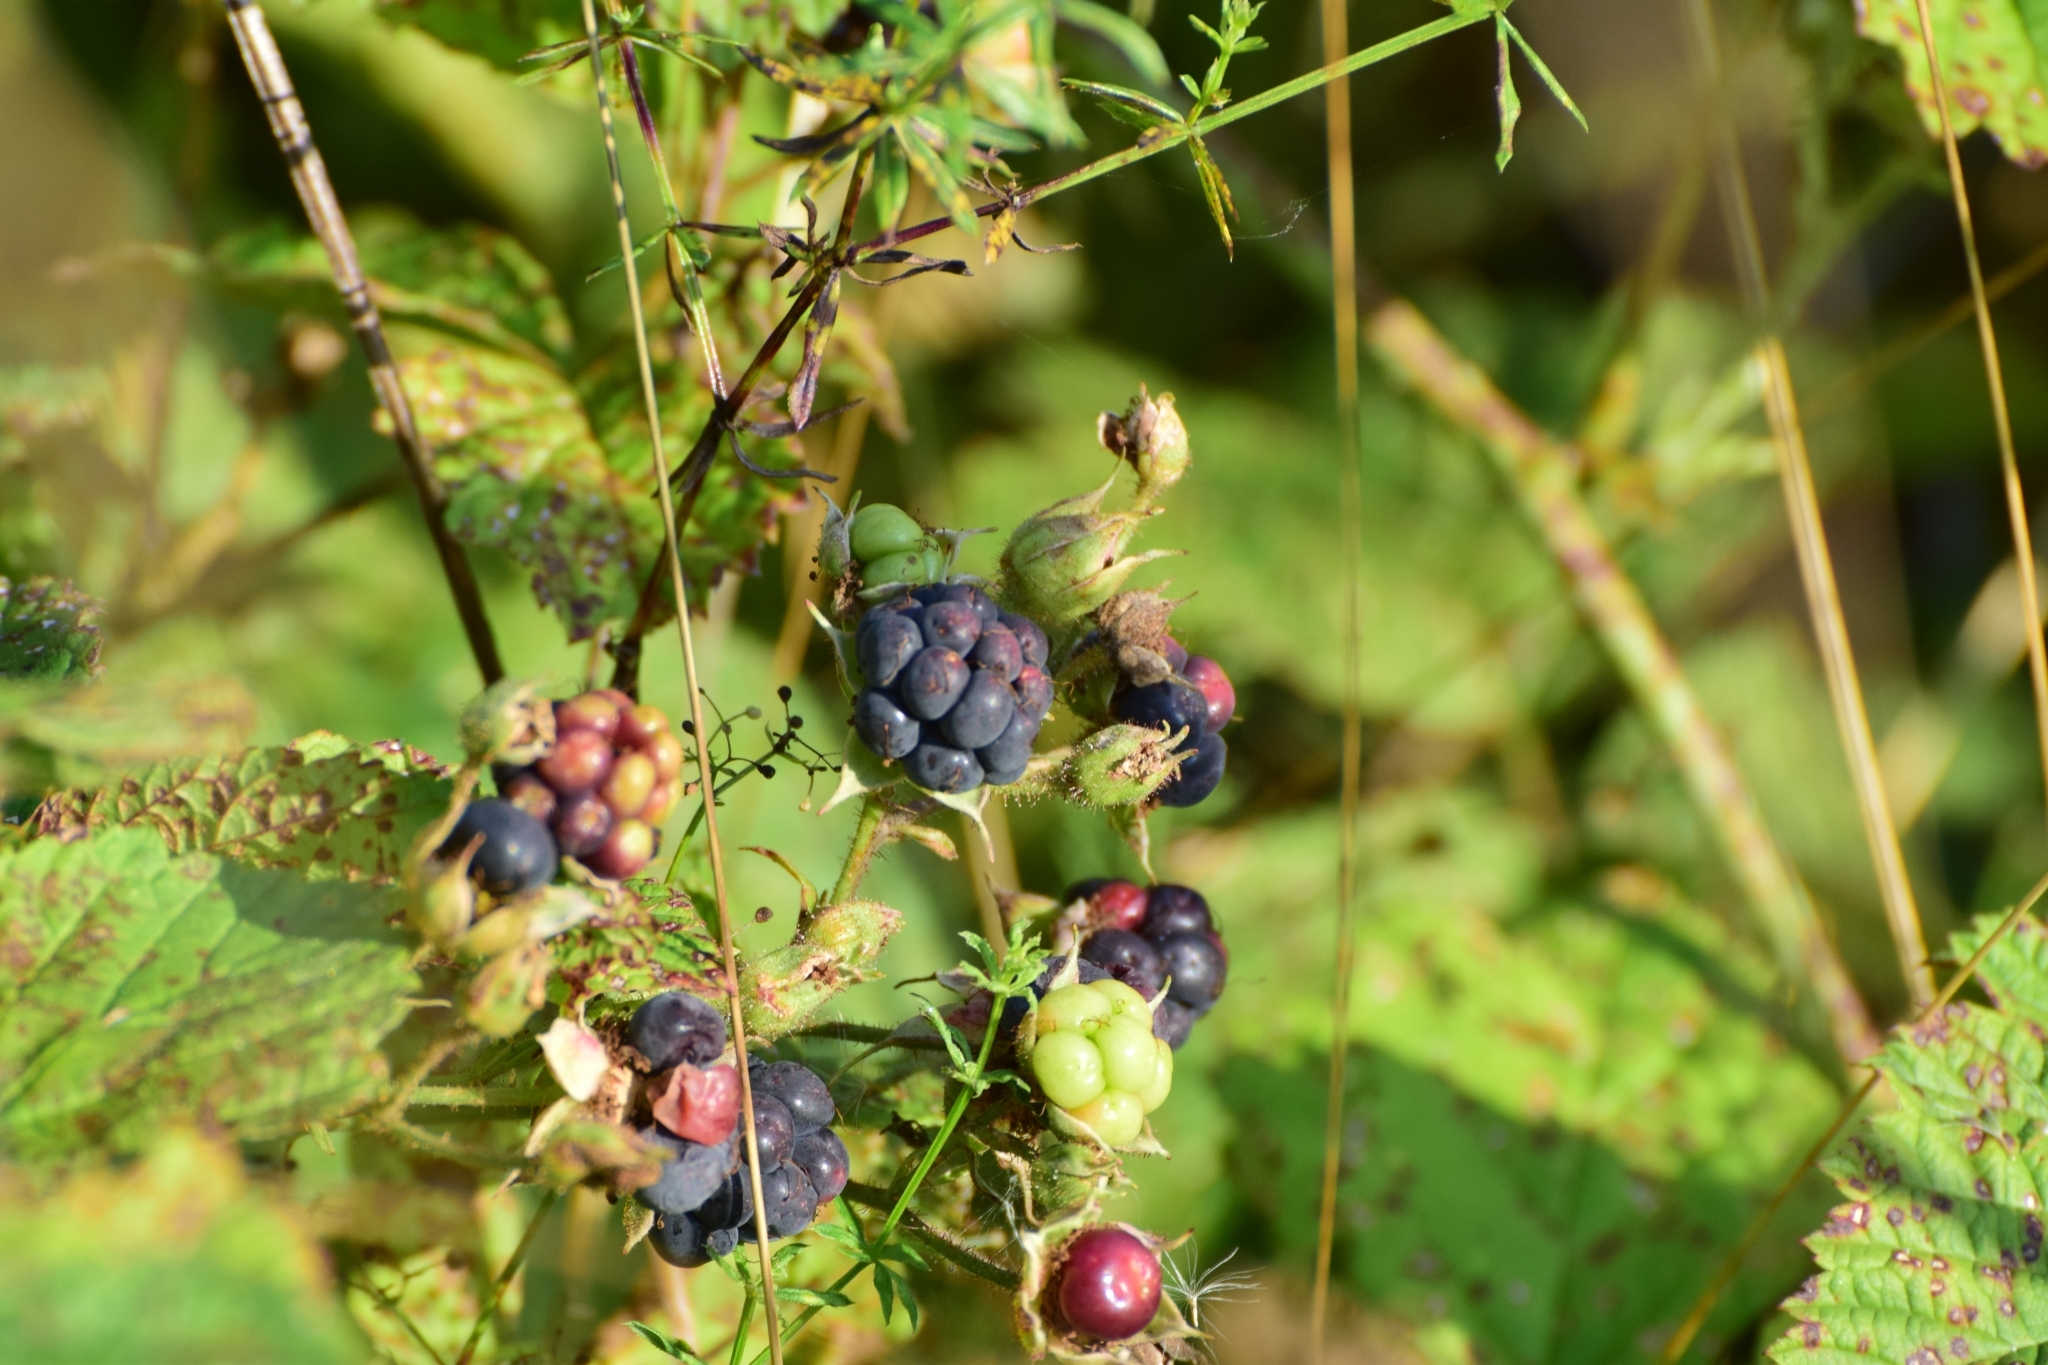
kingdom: Plantae
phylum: Tracheophyta
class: Magnoliopsida
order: Rosales
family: Rosaceae
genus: Rubus
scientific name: Rubus caesius
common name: Dewberry
